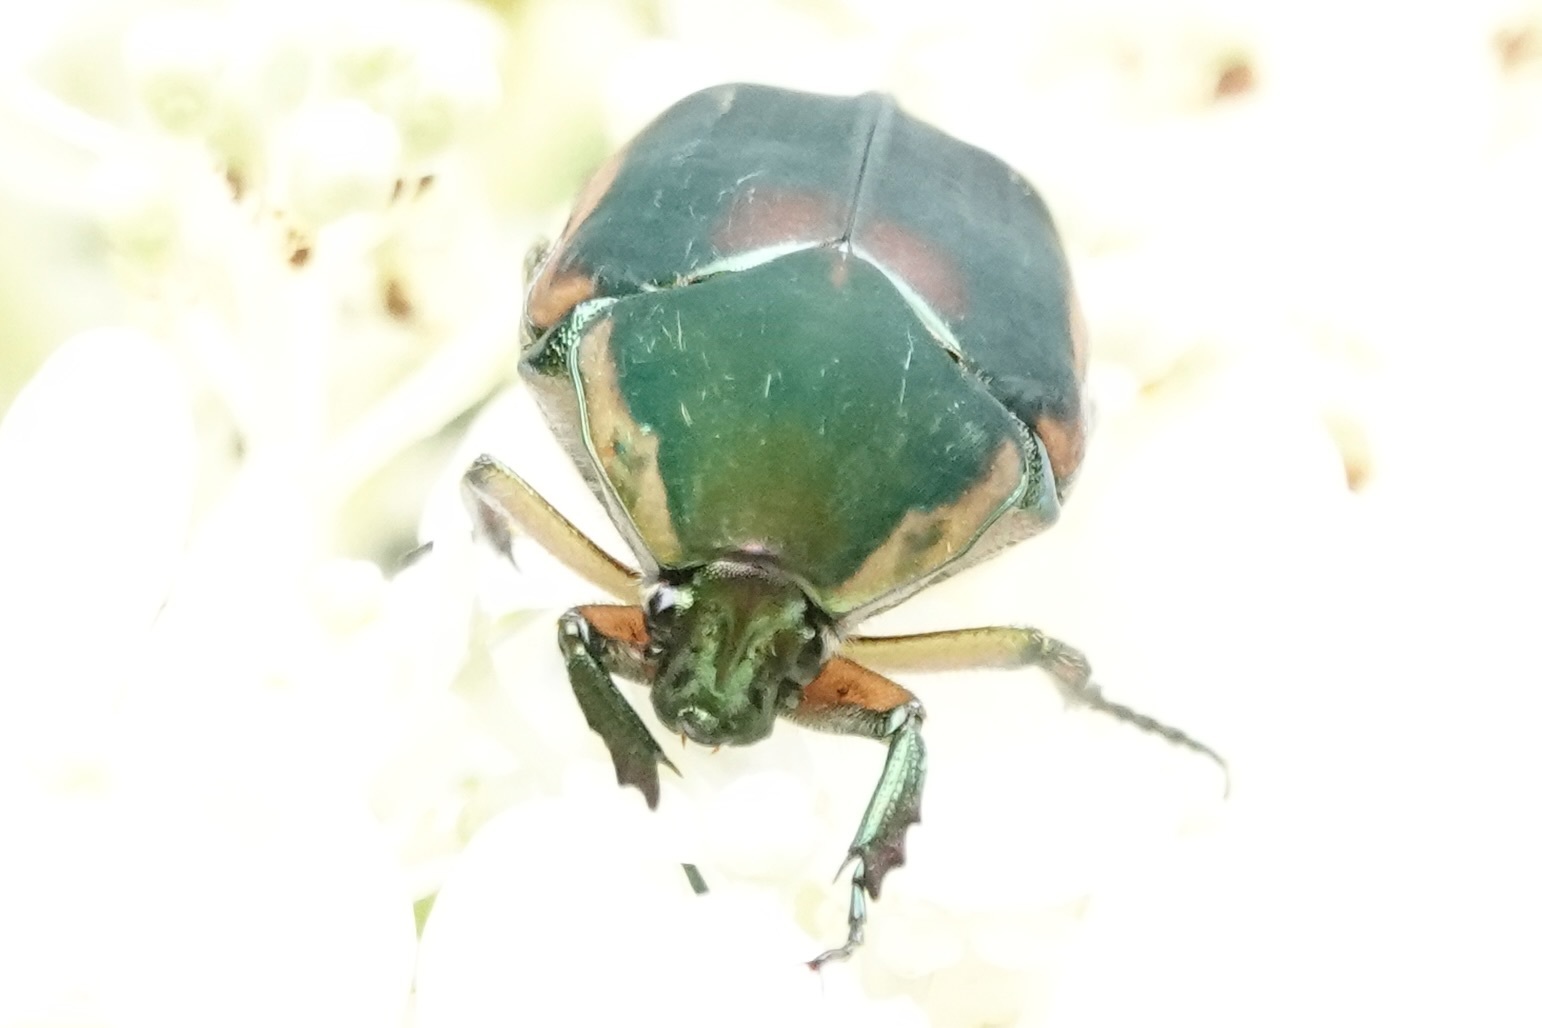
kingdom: Animalia
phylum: Arthropoda
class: Insecta
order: Coleoptera
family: Scarabaeidae
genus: Cotinis
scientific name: Cotinis nitida
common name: Common green june beetle
